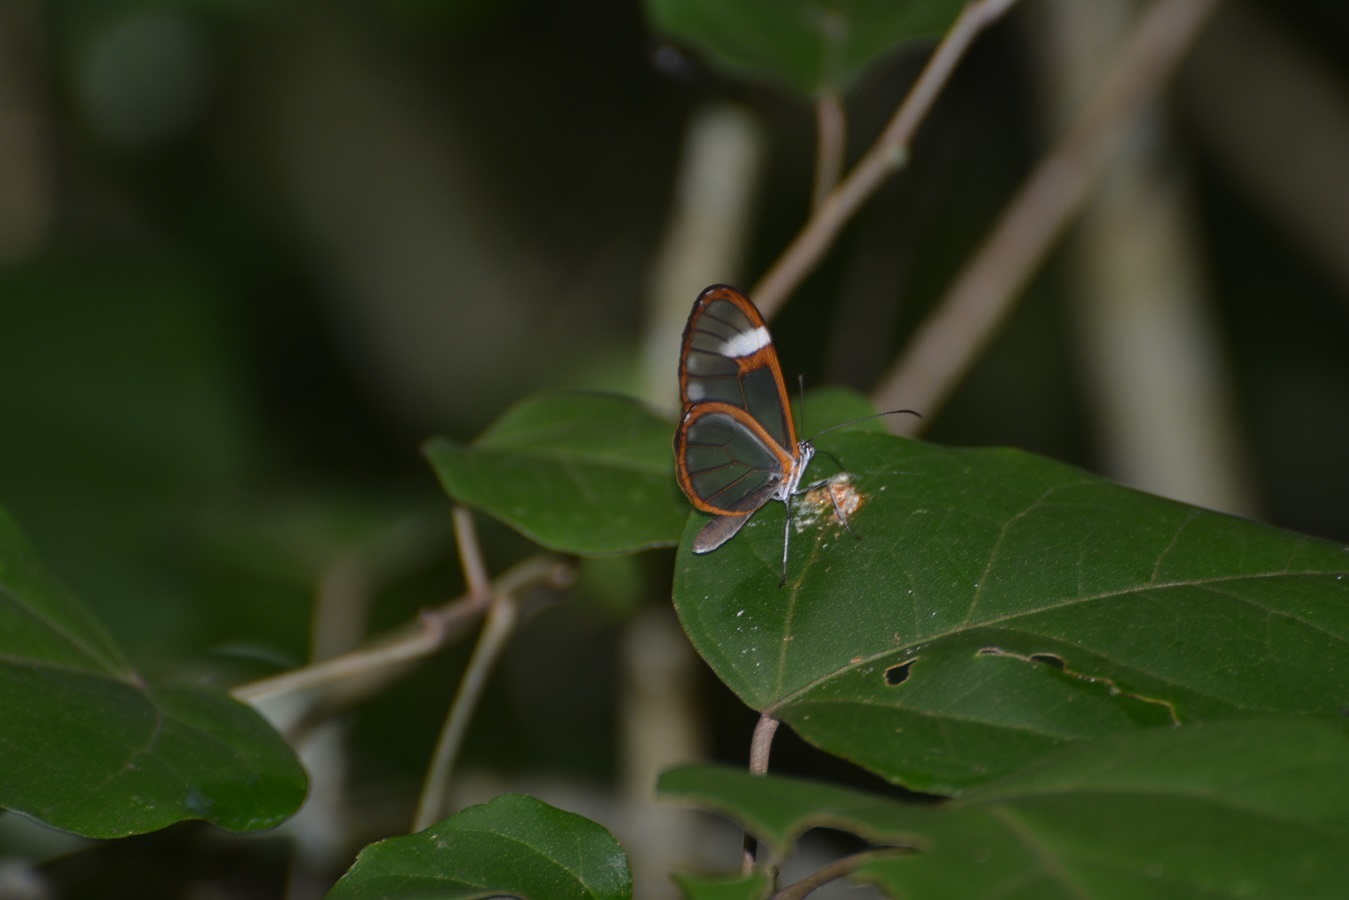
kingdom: Animalia
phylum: Arthropoda
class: Insecta
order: Lepidoptera
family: Nymphalidae
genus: Greta
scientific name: Greta andromica
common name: Andromica clearwing
